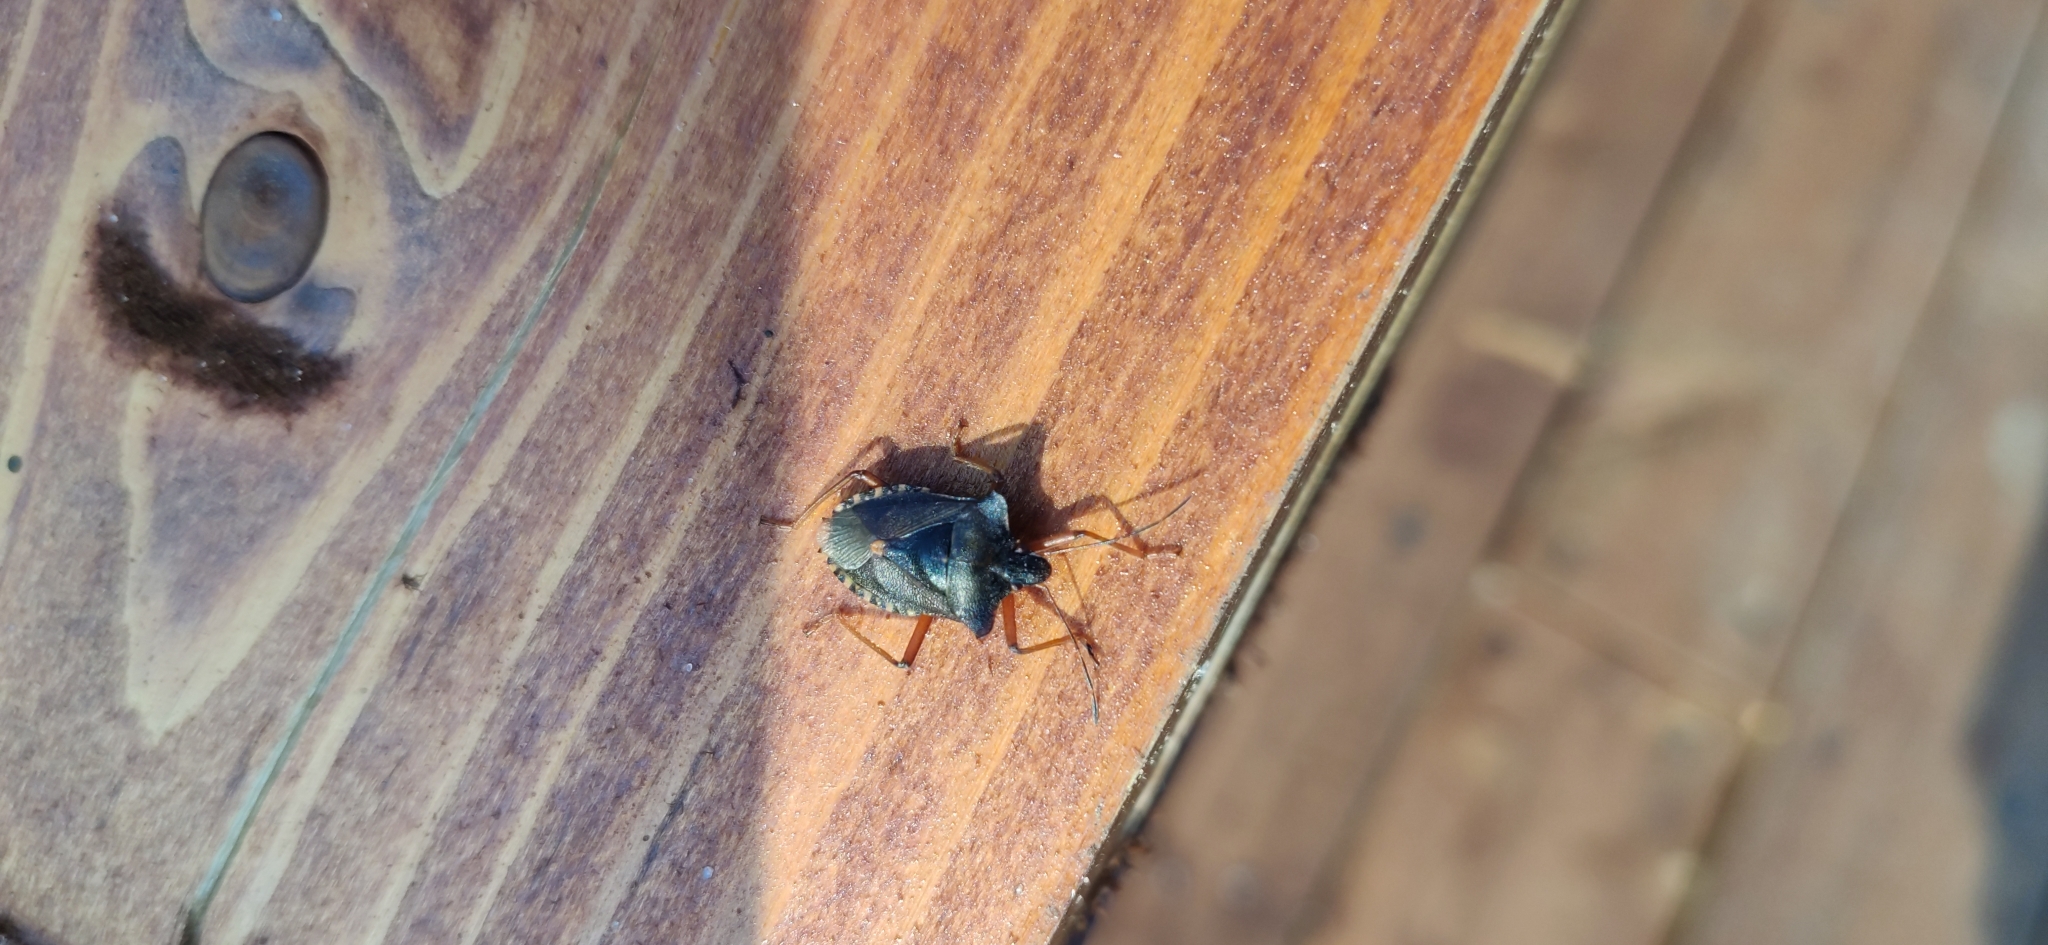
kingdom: Animalia
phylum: Arthropoda
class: Insecta
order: Hemiptera
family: Pentatomidae
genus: Pentatoma
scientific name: Pentatoma rufipes
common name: Forest bug
